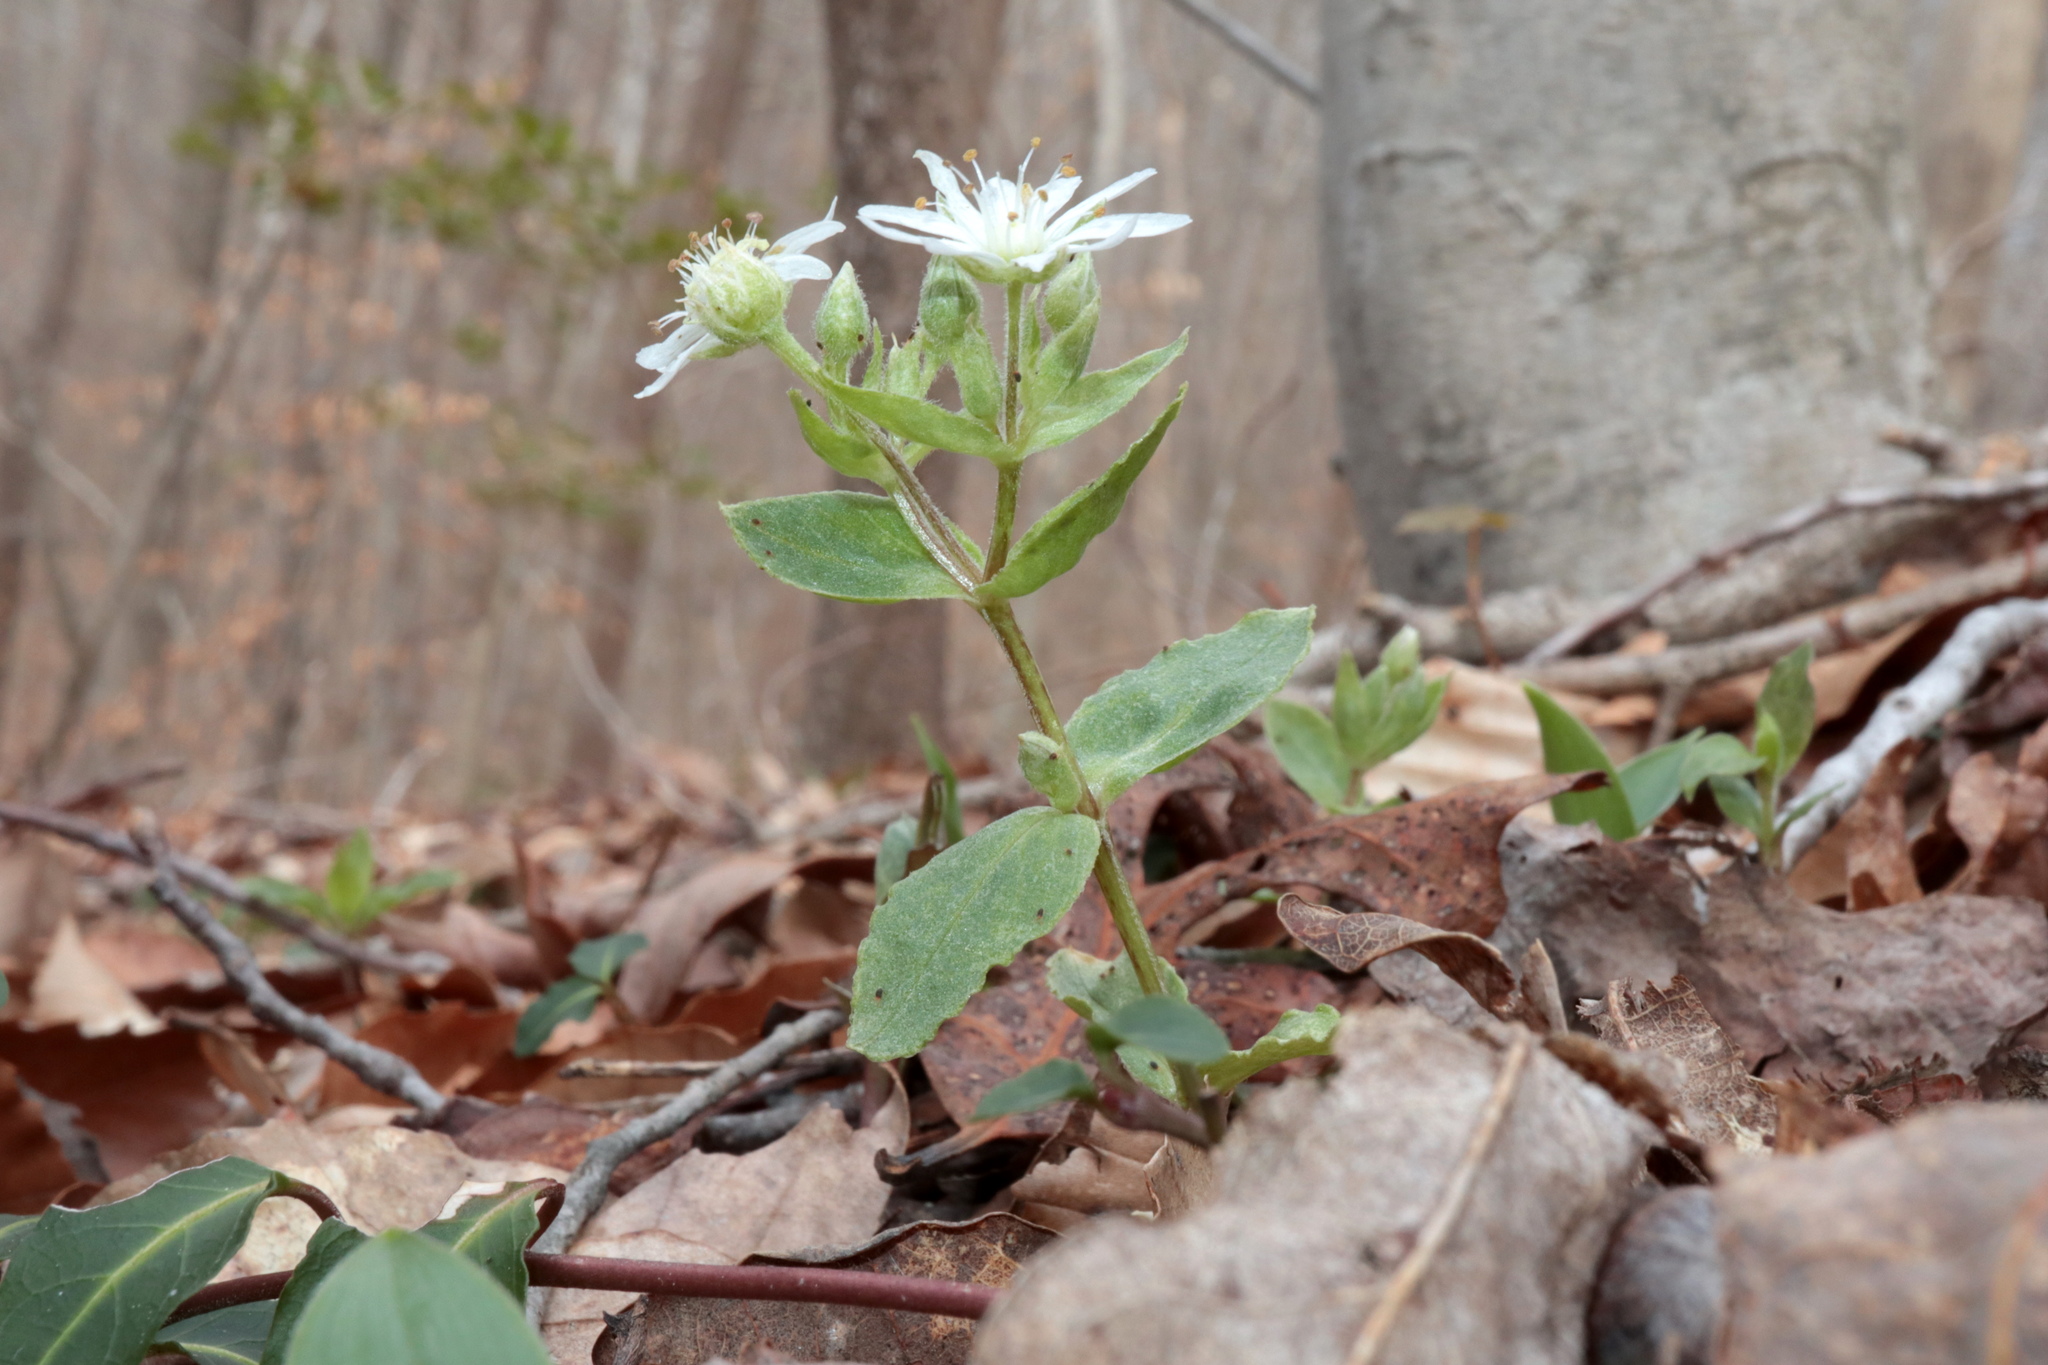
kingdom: Plantae
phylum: Tracheophyta
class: Magnoliopsida
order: Caryophyllales
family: Caryophyllaceae
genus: Stellaria
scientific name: Stellaria pubera
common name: Star chickweed
